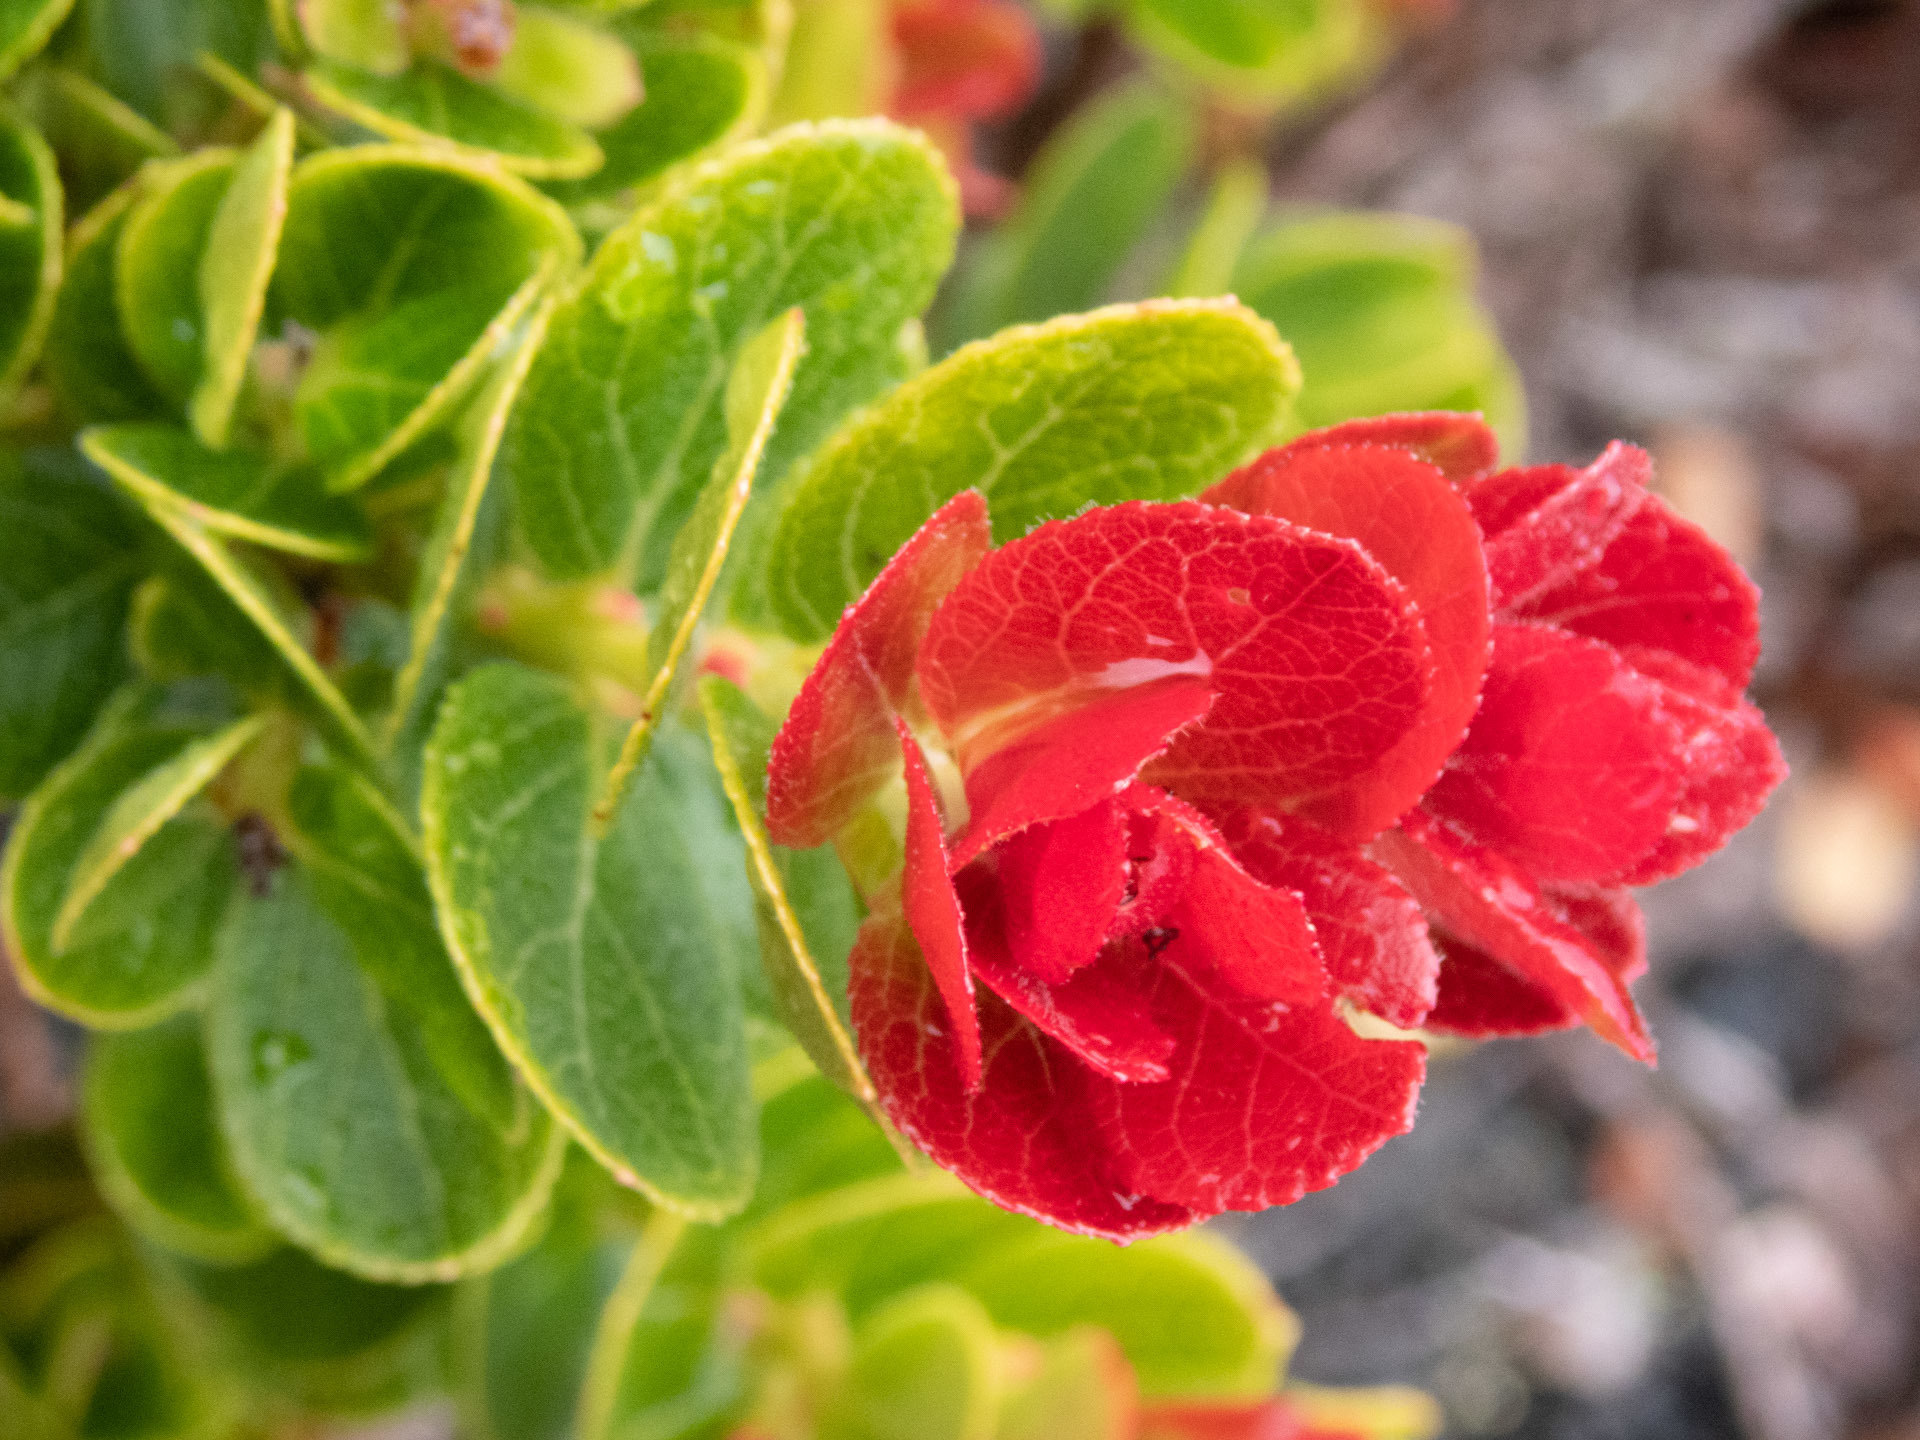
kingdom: Plantae
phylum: Tracheophyta
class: Magnoliopsida
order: Ericales
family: Ericaceae
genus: Vaccinium
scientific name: Vaccinium reticulatum
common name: Ohelo
